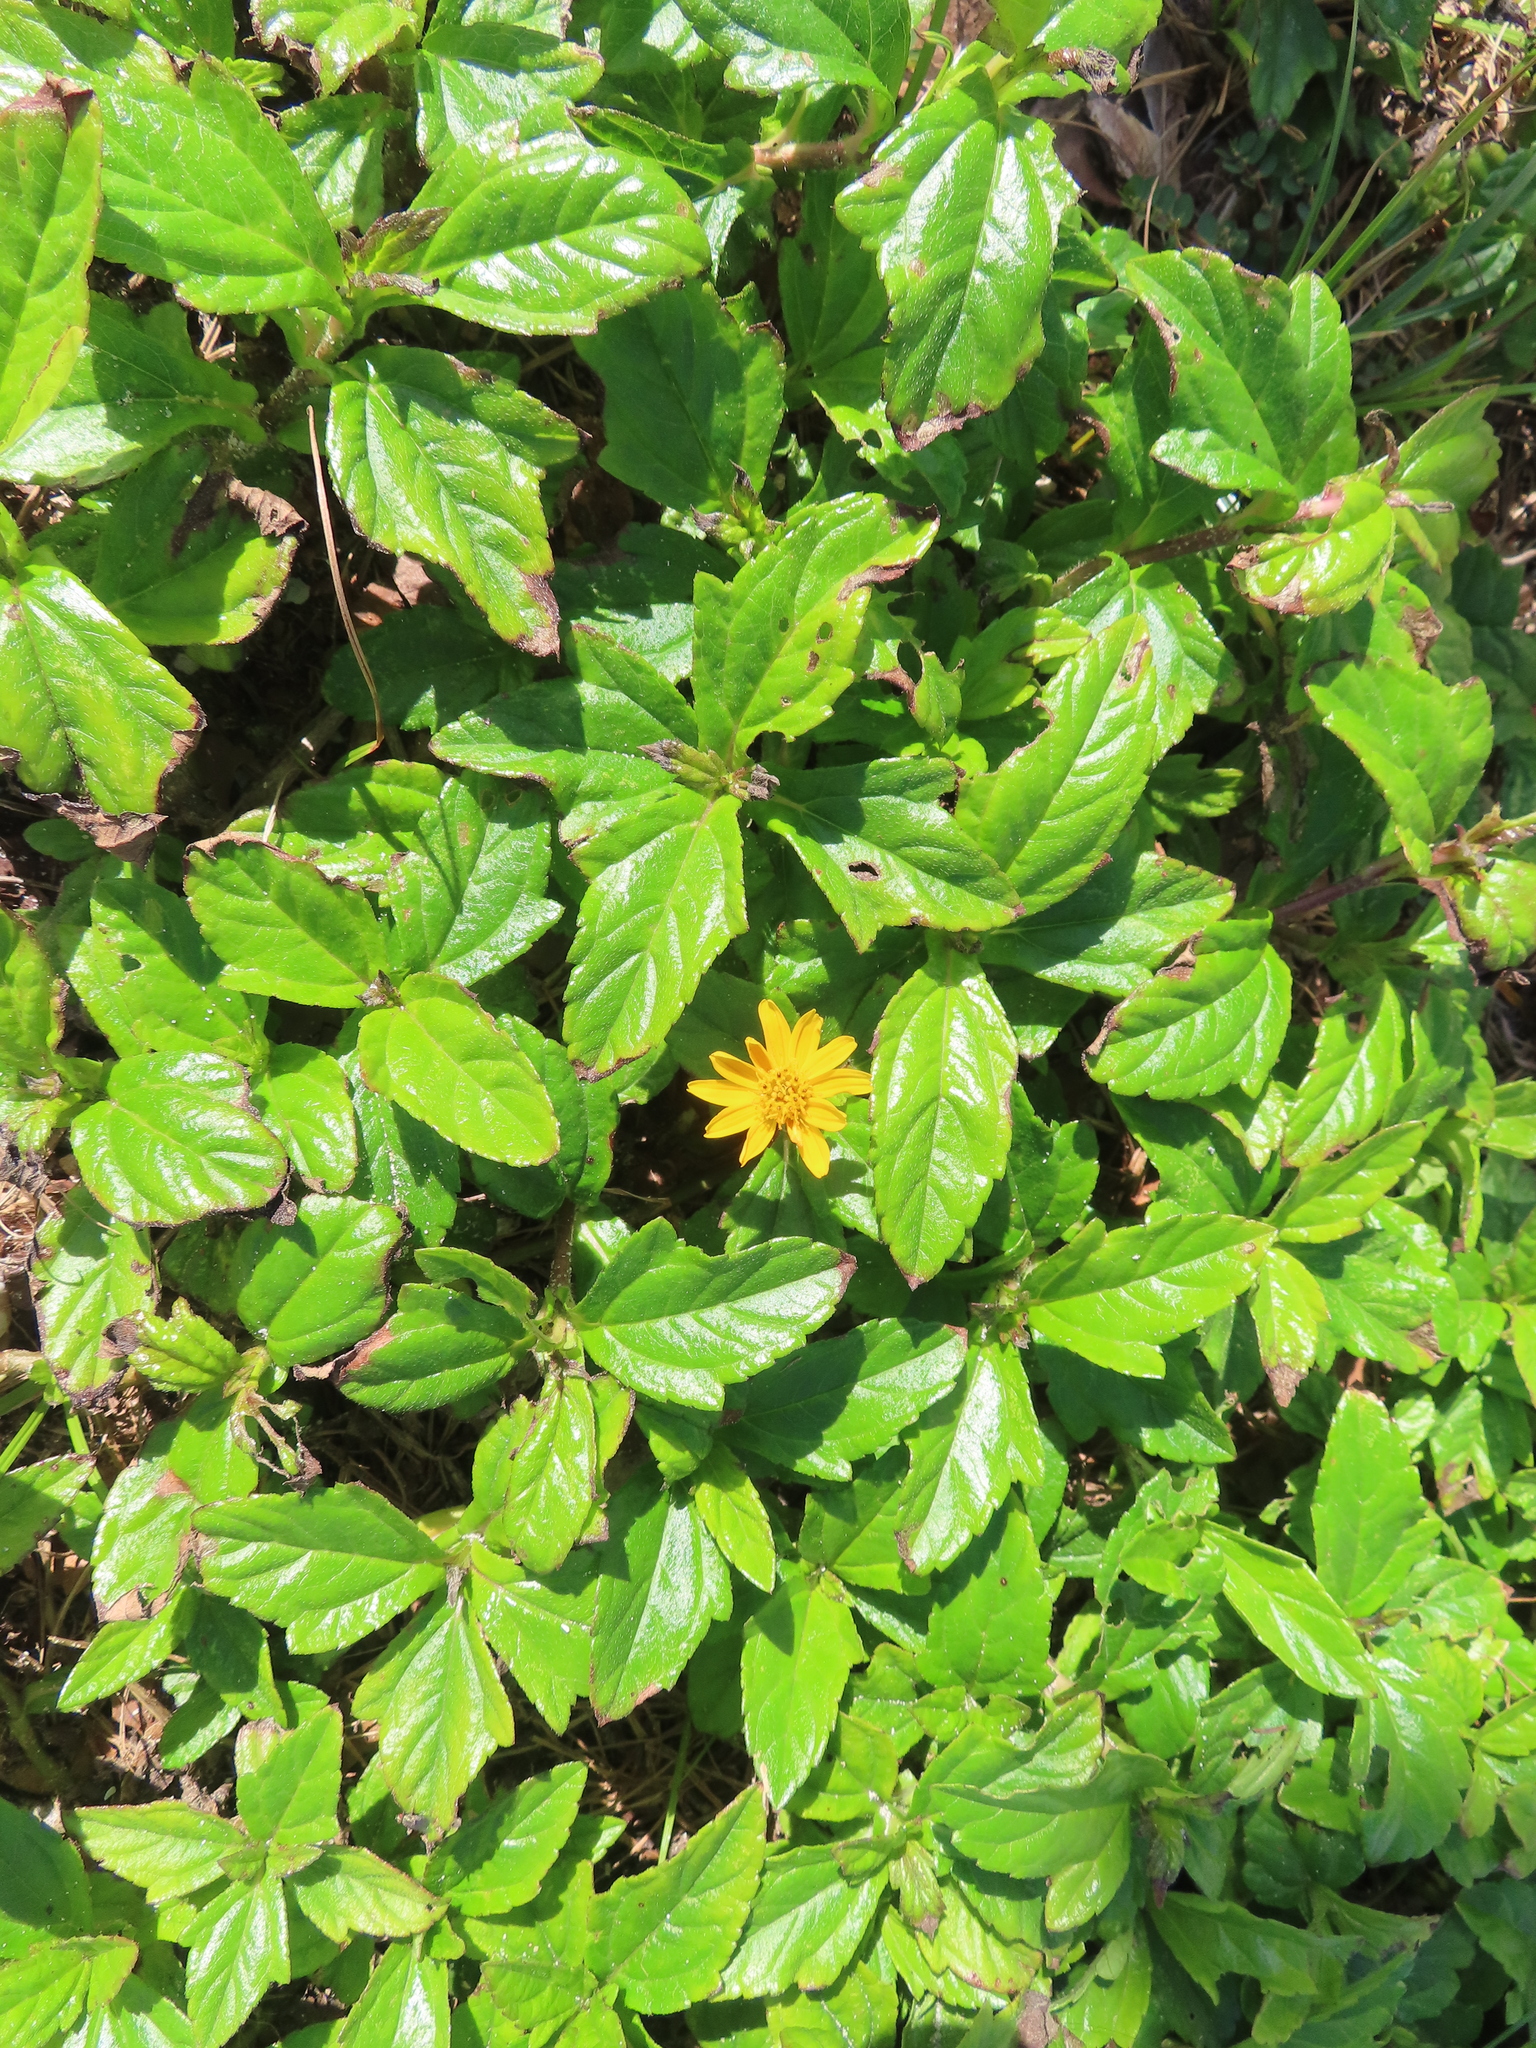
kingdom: Plantae
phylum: Tracheophyta
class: Magnoliopsida
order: Asterales
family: Asteraceae
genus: Sphagneticola
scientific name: Sphagneticola trilobata
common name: Bay biscayne creeping-oxeye
